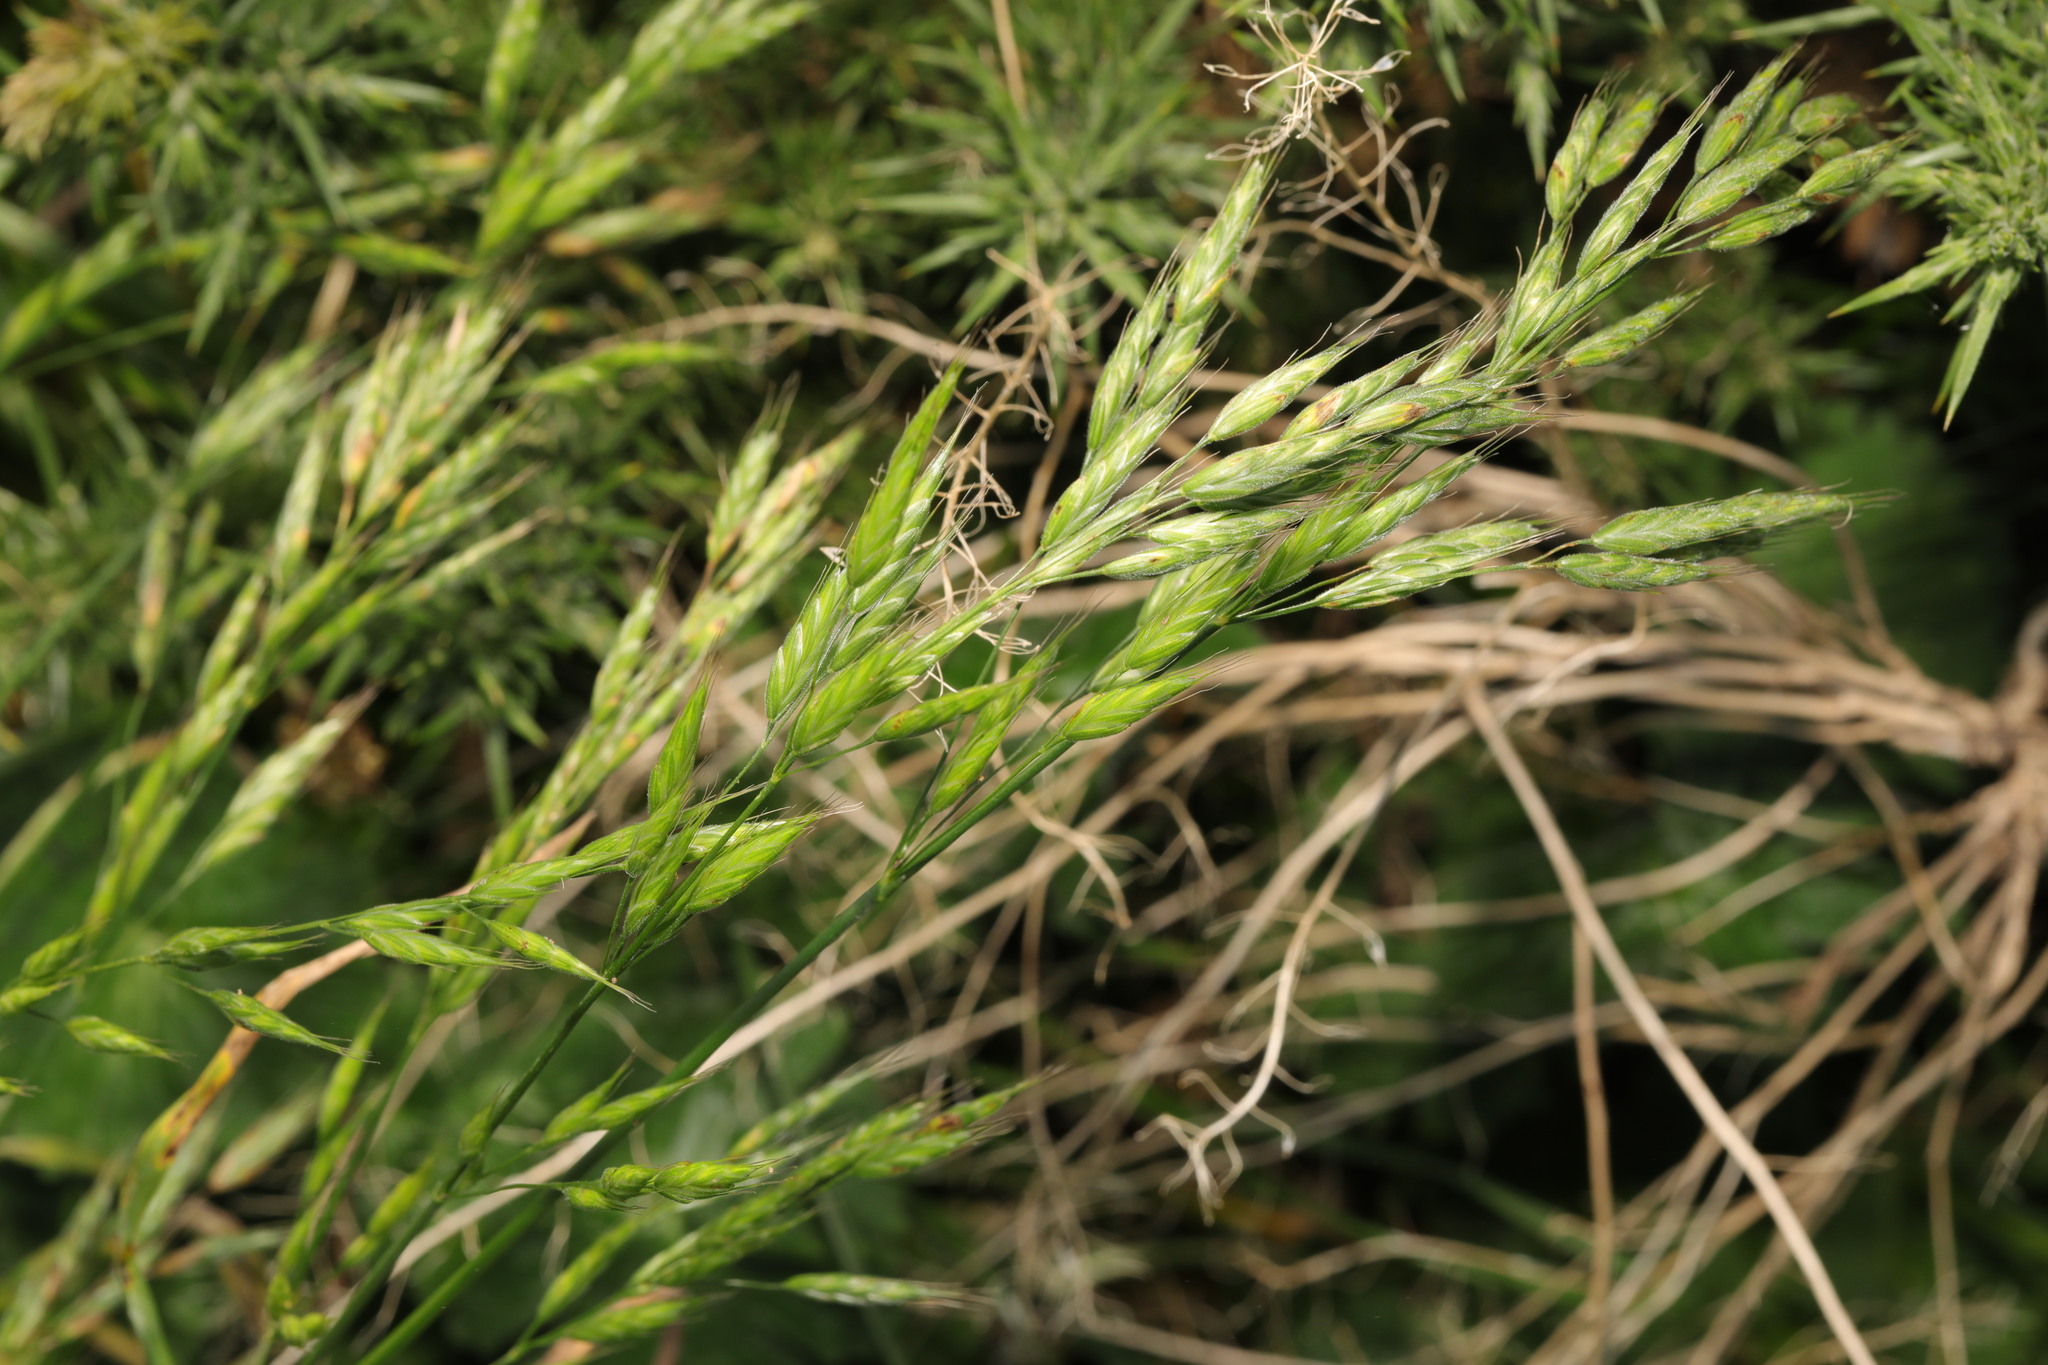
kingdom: Plantae
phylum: Tracheophyta
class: Liliopsida
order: Poales
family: Poaceae
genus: Bromus
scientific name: Bromus hordeaceus
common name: Soft brome
